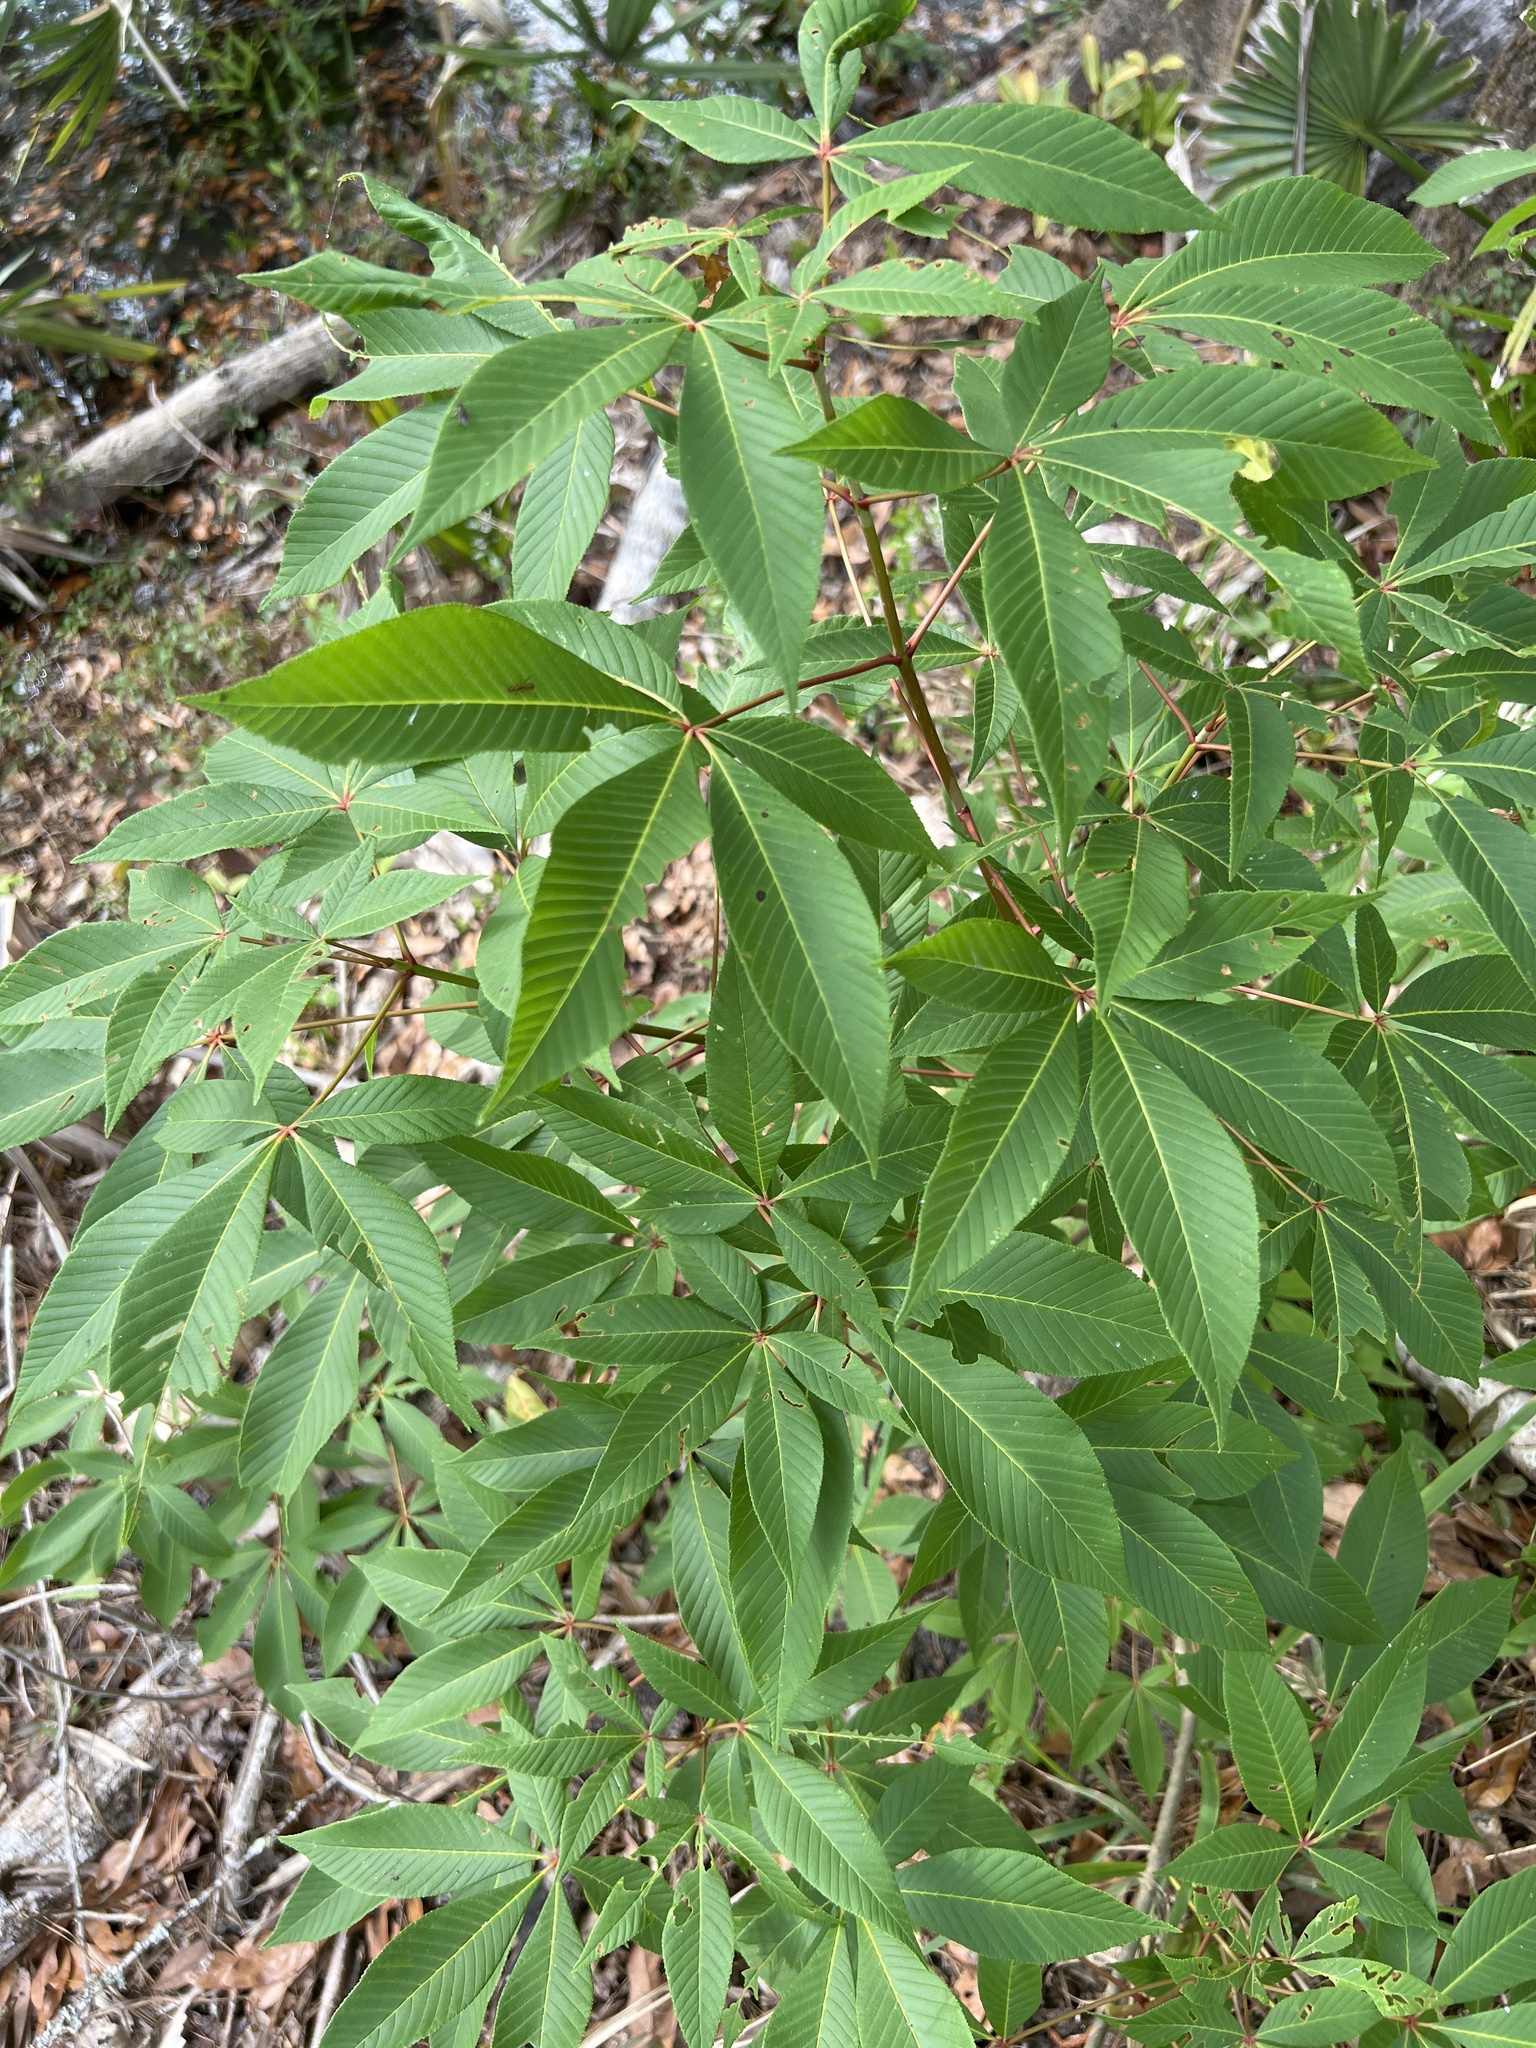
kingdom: Plantae
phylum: Tracheophyta
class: Magnoliopsida
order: Sapindales
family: Sapindaceae
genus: Aesculus
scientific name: Aesculus pavia
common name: Red buckeye
